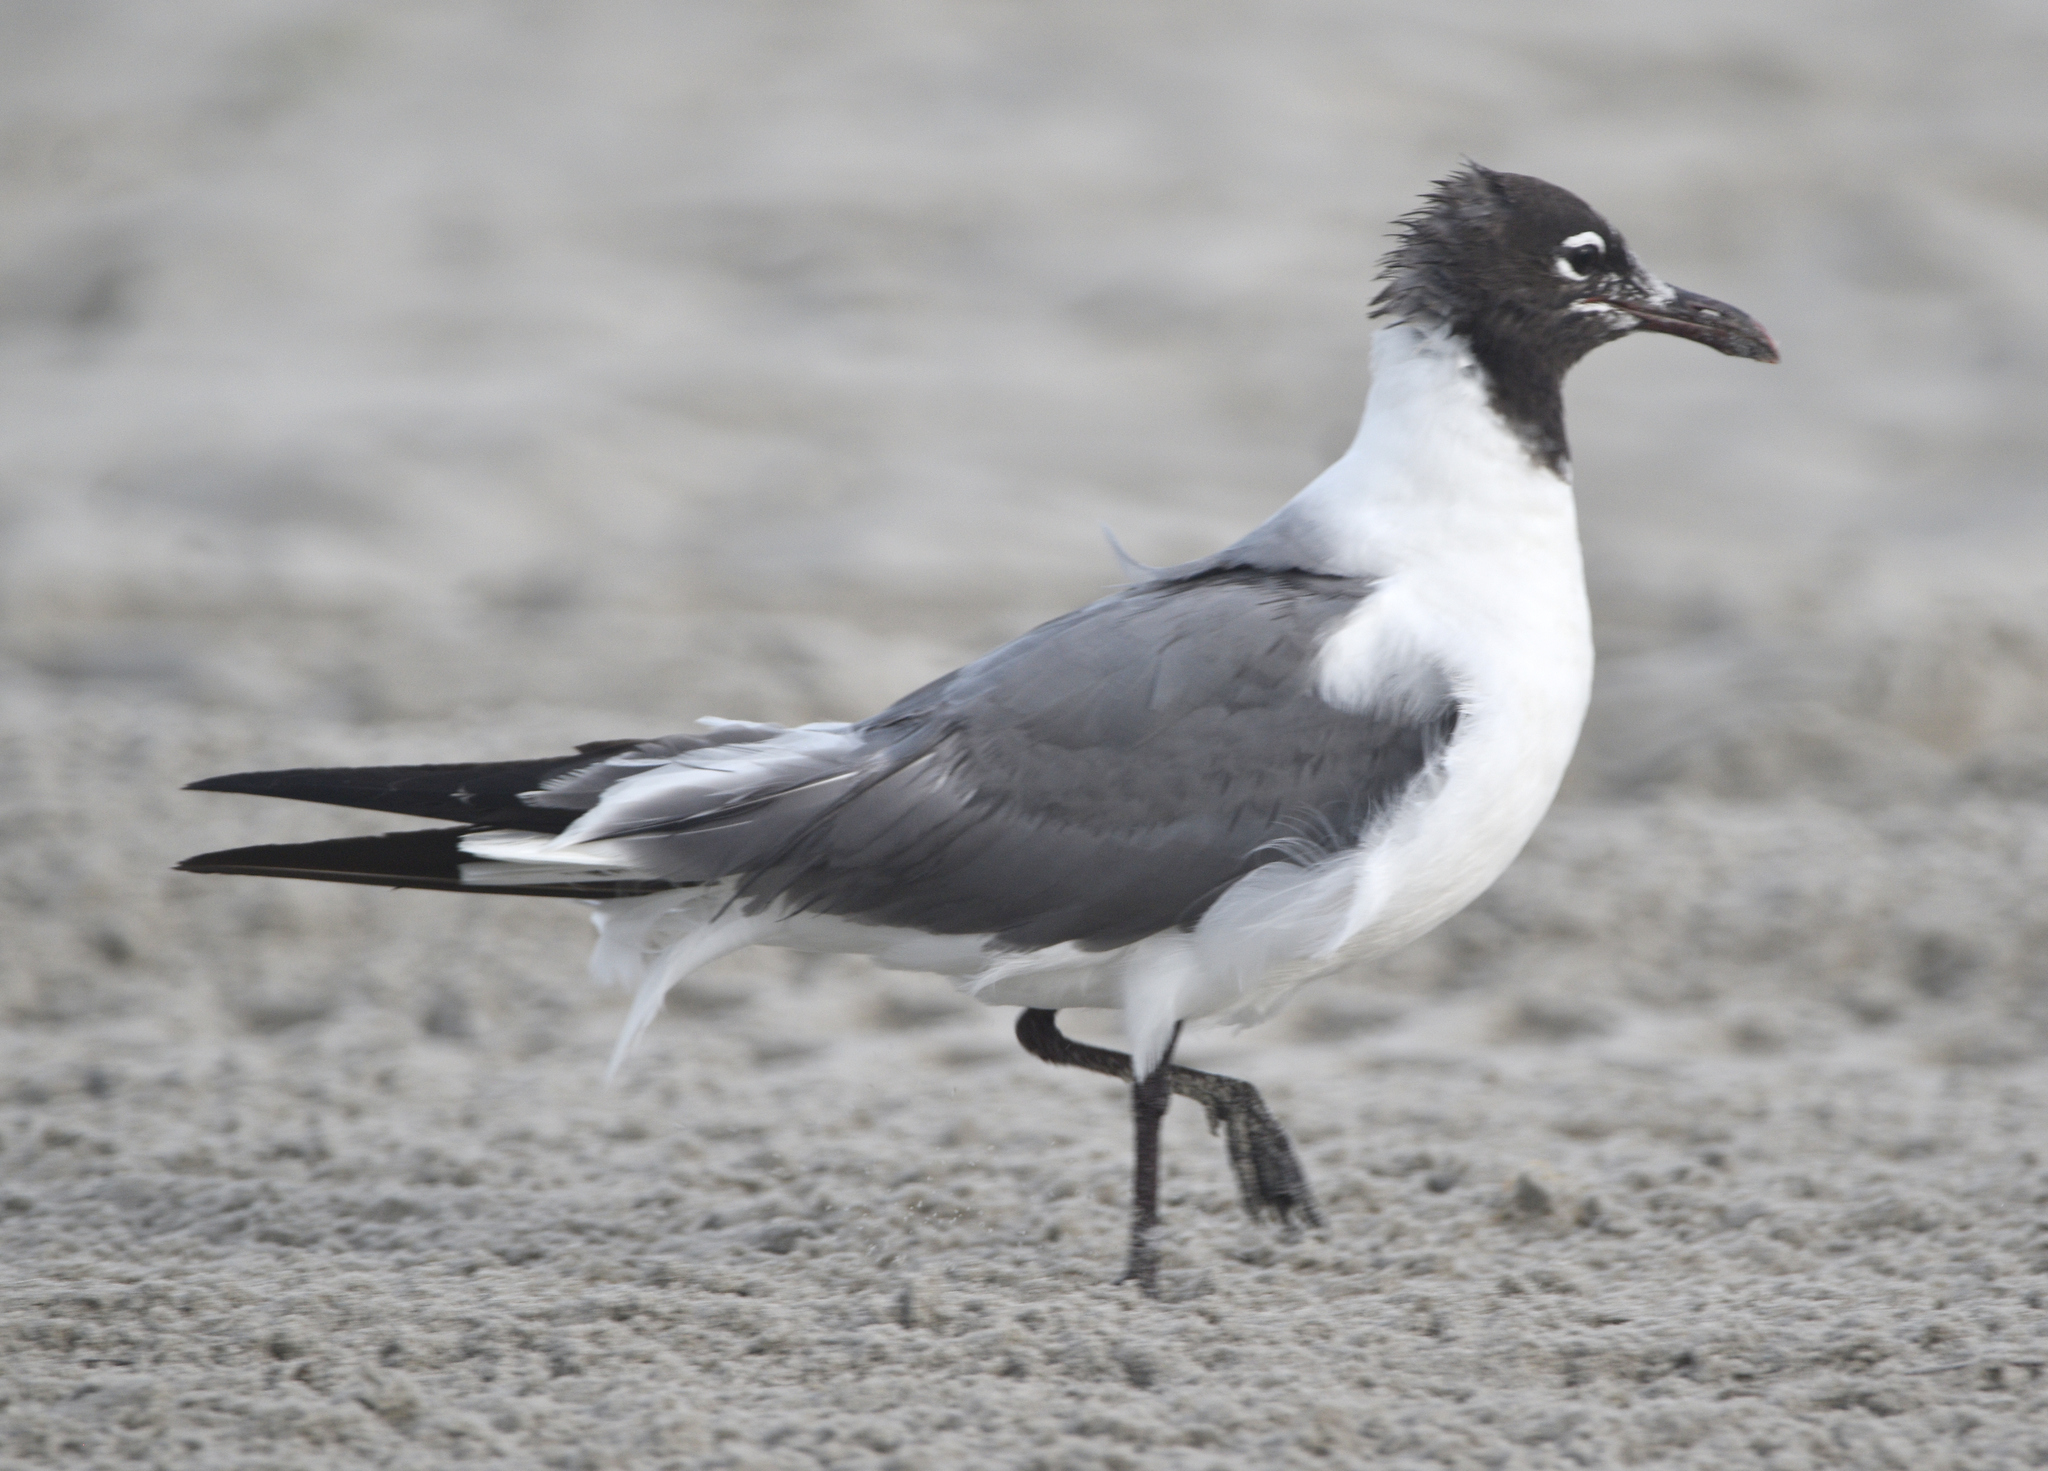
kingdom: Animalia
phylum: Chordata
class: Aves
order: Charadriiformes
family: Laridae
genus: Leucophaeus
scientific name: Leucophaeus atricilla
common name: Laughing gull
